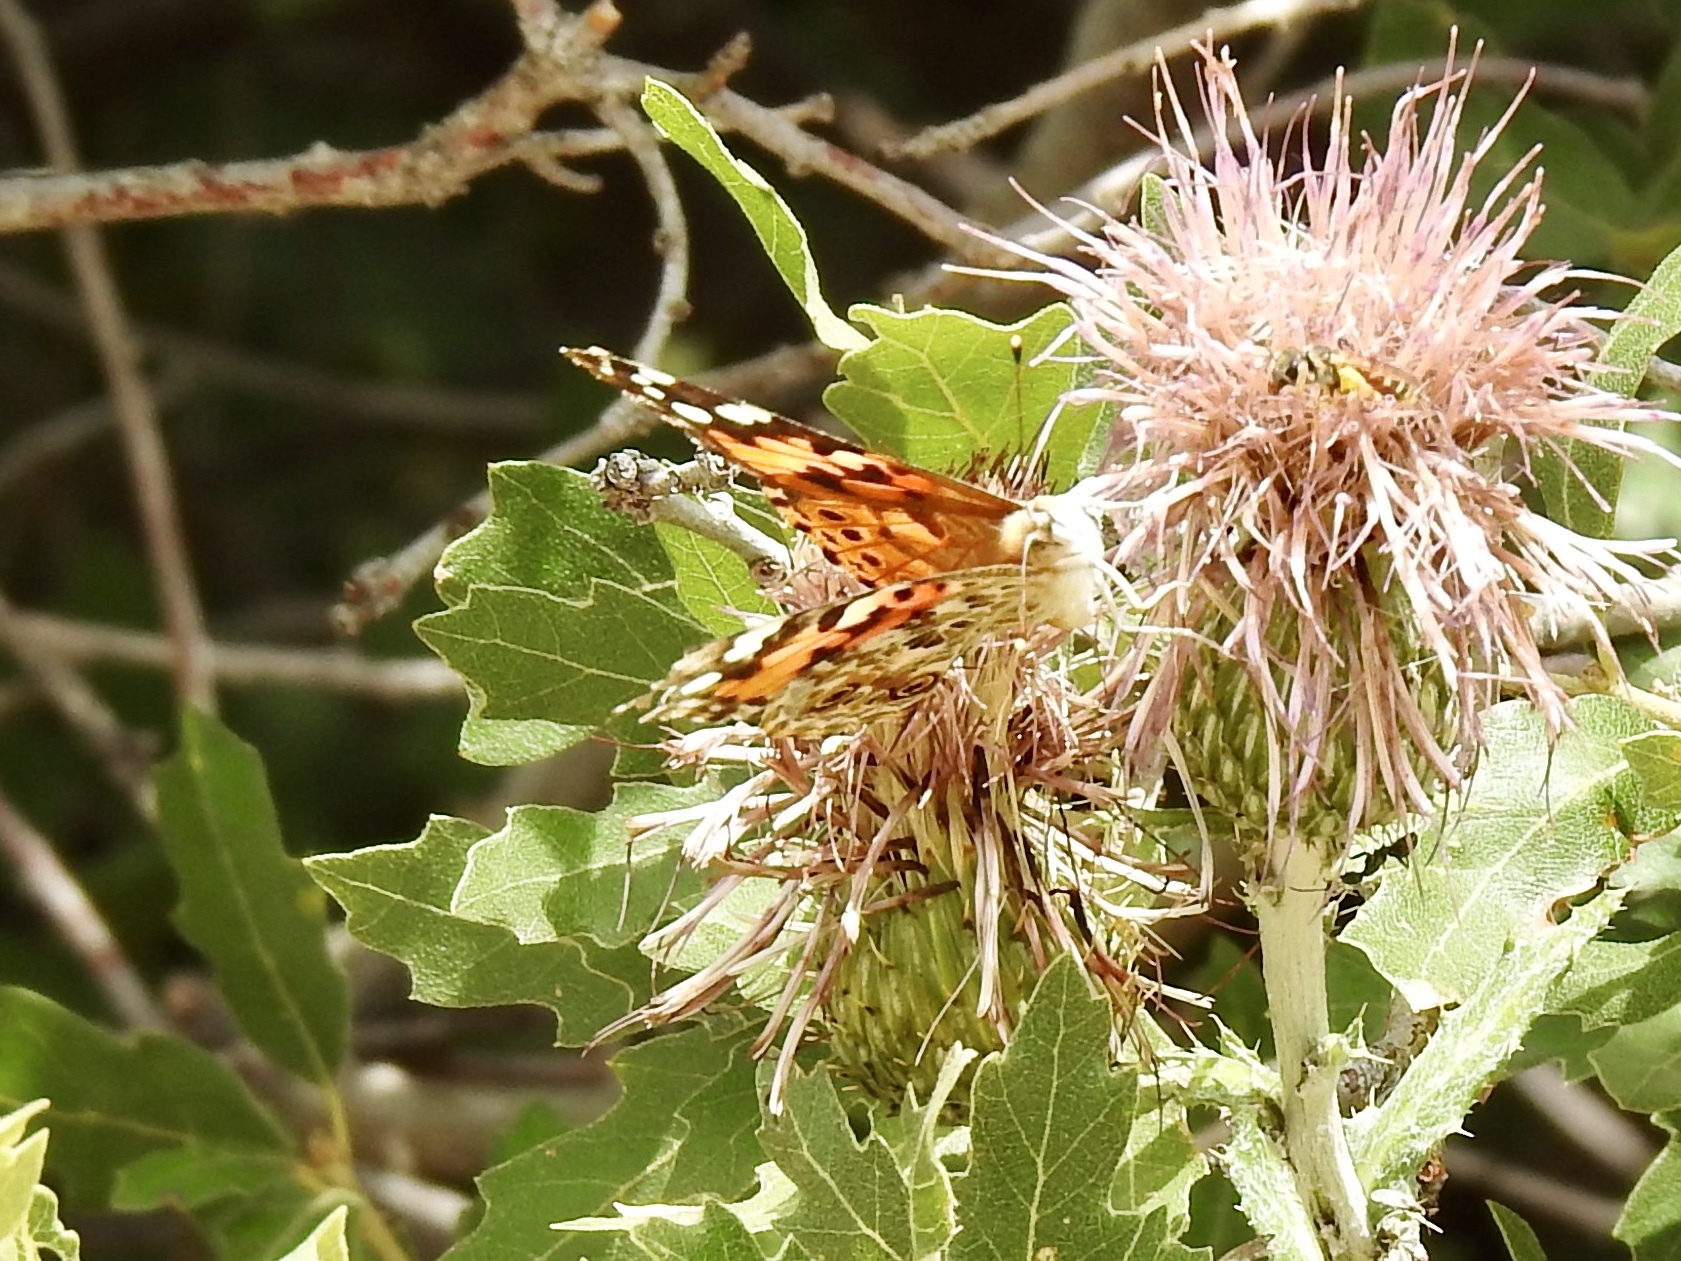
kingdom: Animalia
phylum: Arthropoda
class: Insecta
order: Lepidoptera
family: Nymphalidae
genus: Vanessa
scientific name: Vanessa cardui
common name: Painted lady
